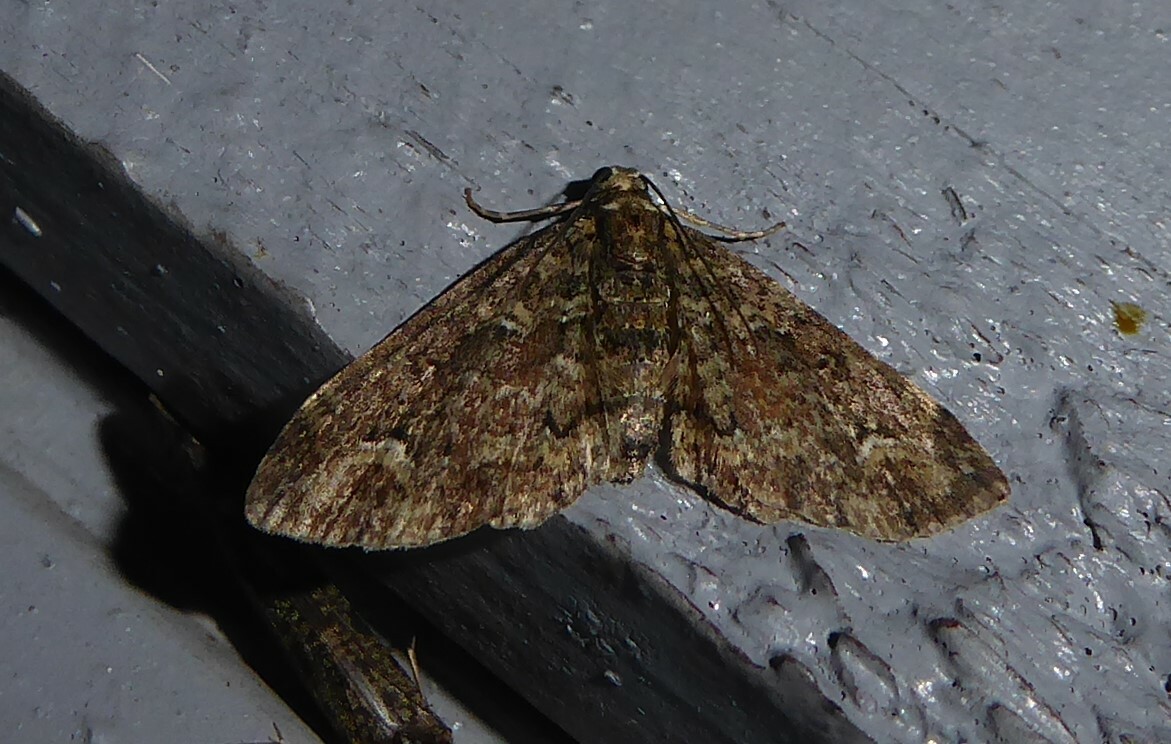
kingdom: Animalia
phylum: Arthropoda
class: Insecta
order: Lepidoptera
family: Geometridae
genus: Pasiphilodes
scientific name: Pasiphilodes testulata
